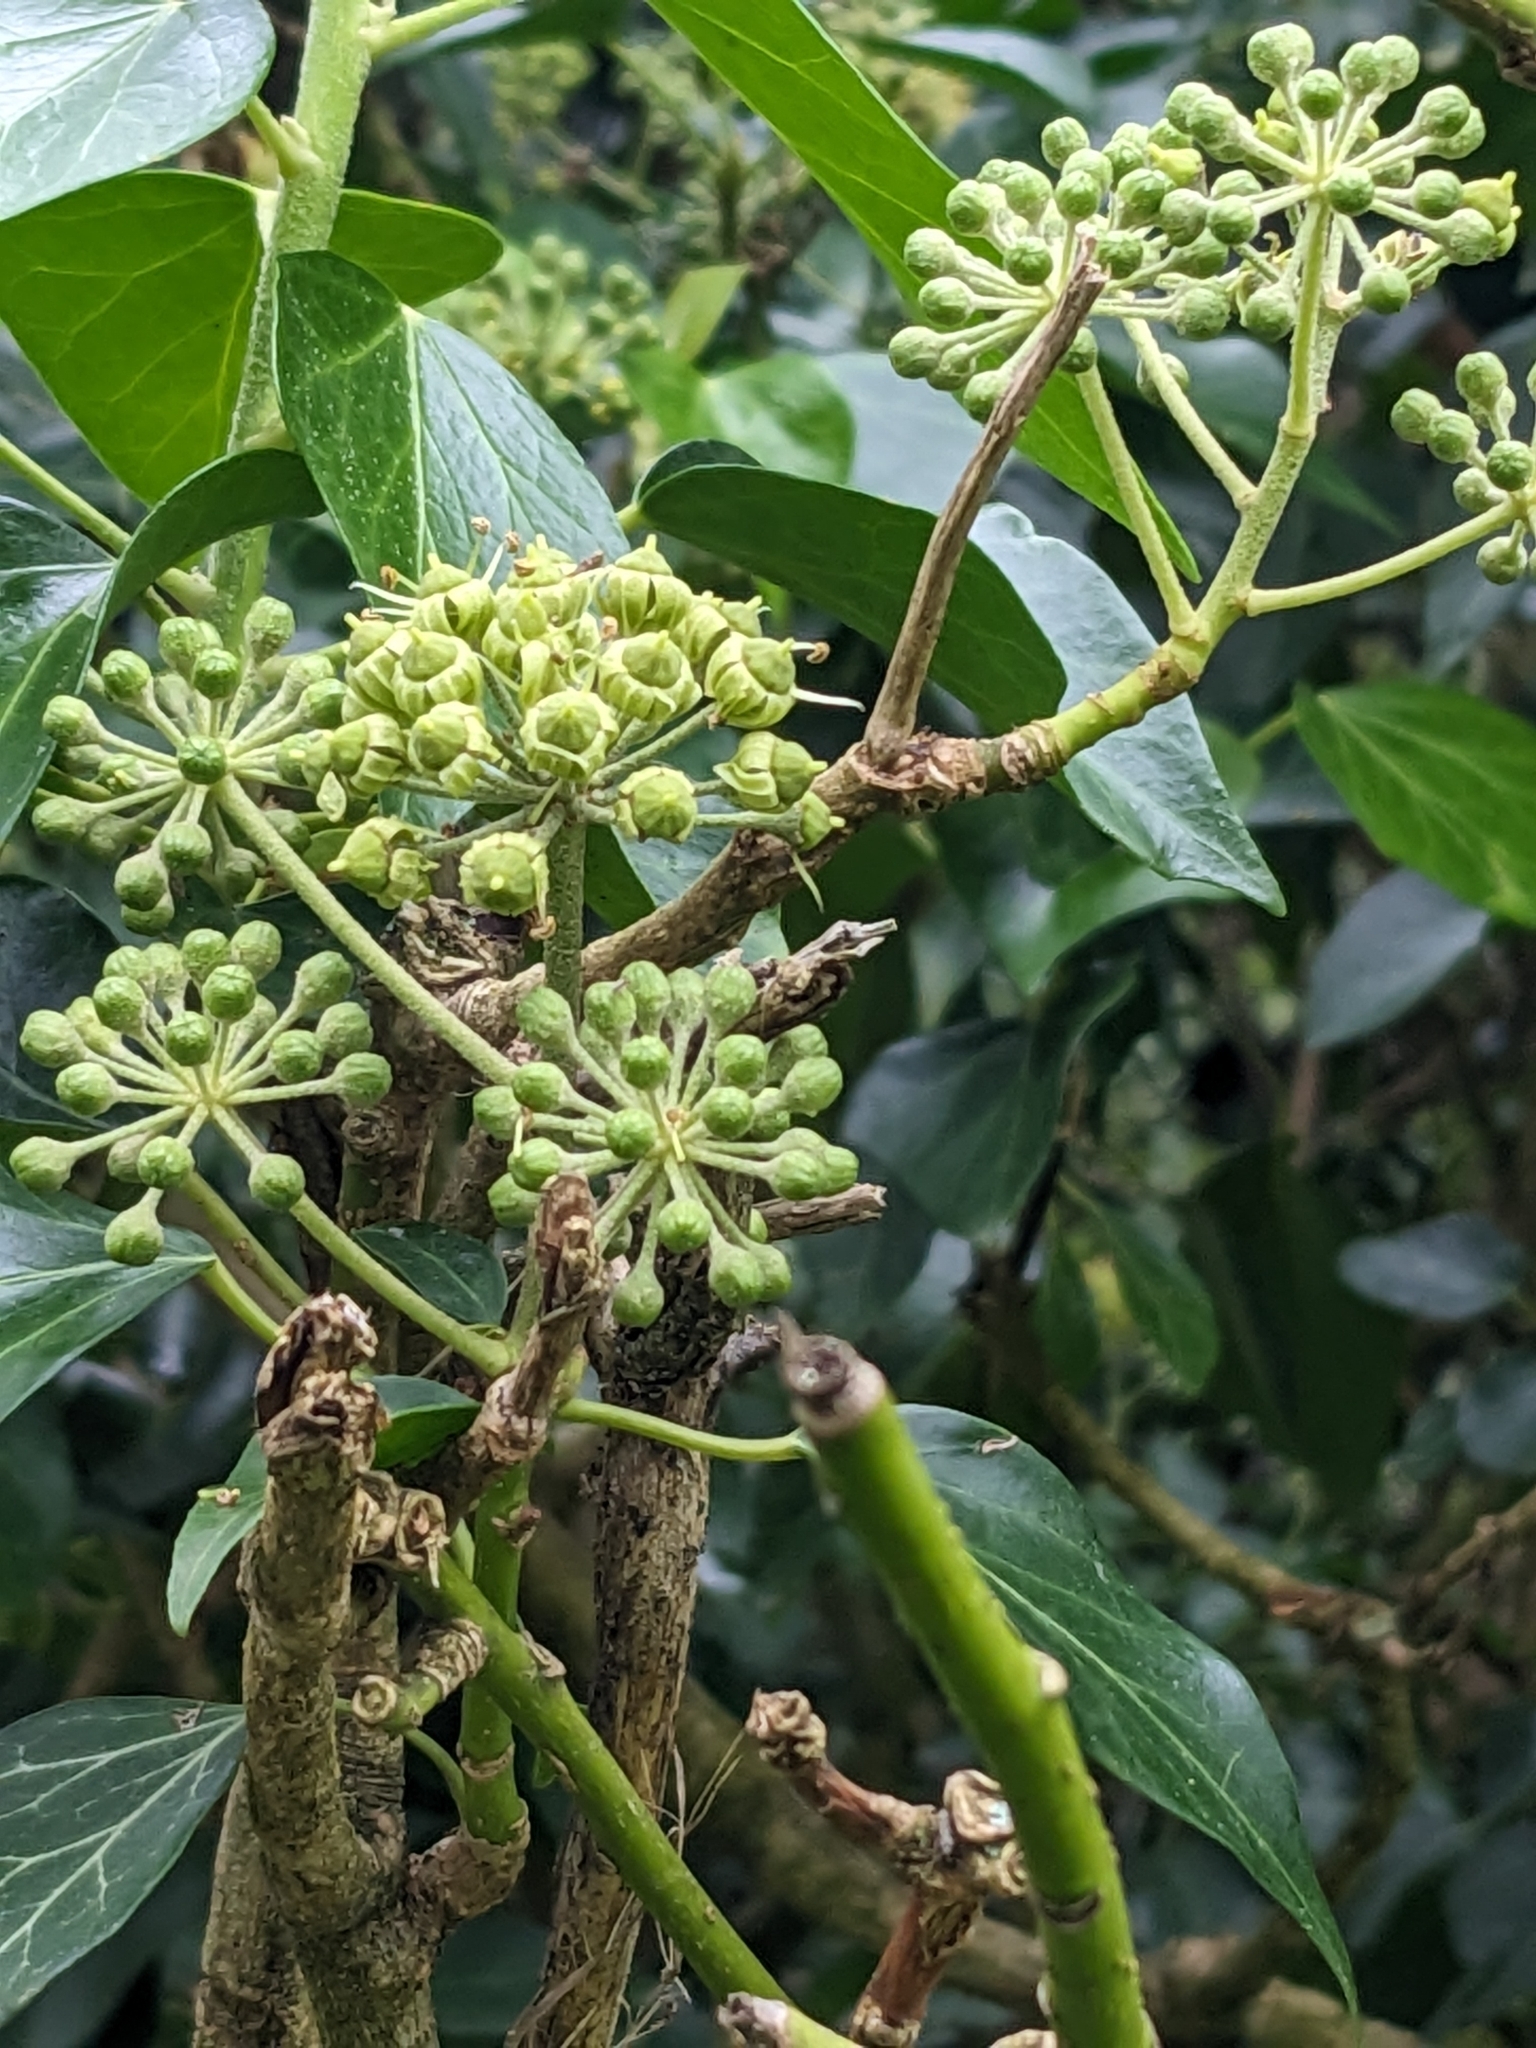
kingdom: Plantae
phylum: Tracheophyta
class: Magnoliopsida
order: Apiales
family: Araliaceae
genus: Hedera
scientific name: Hedera helix
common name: Ivy
